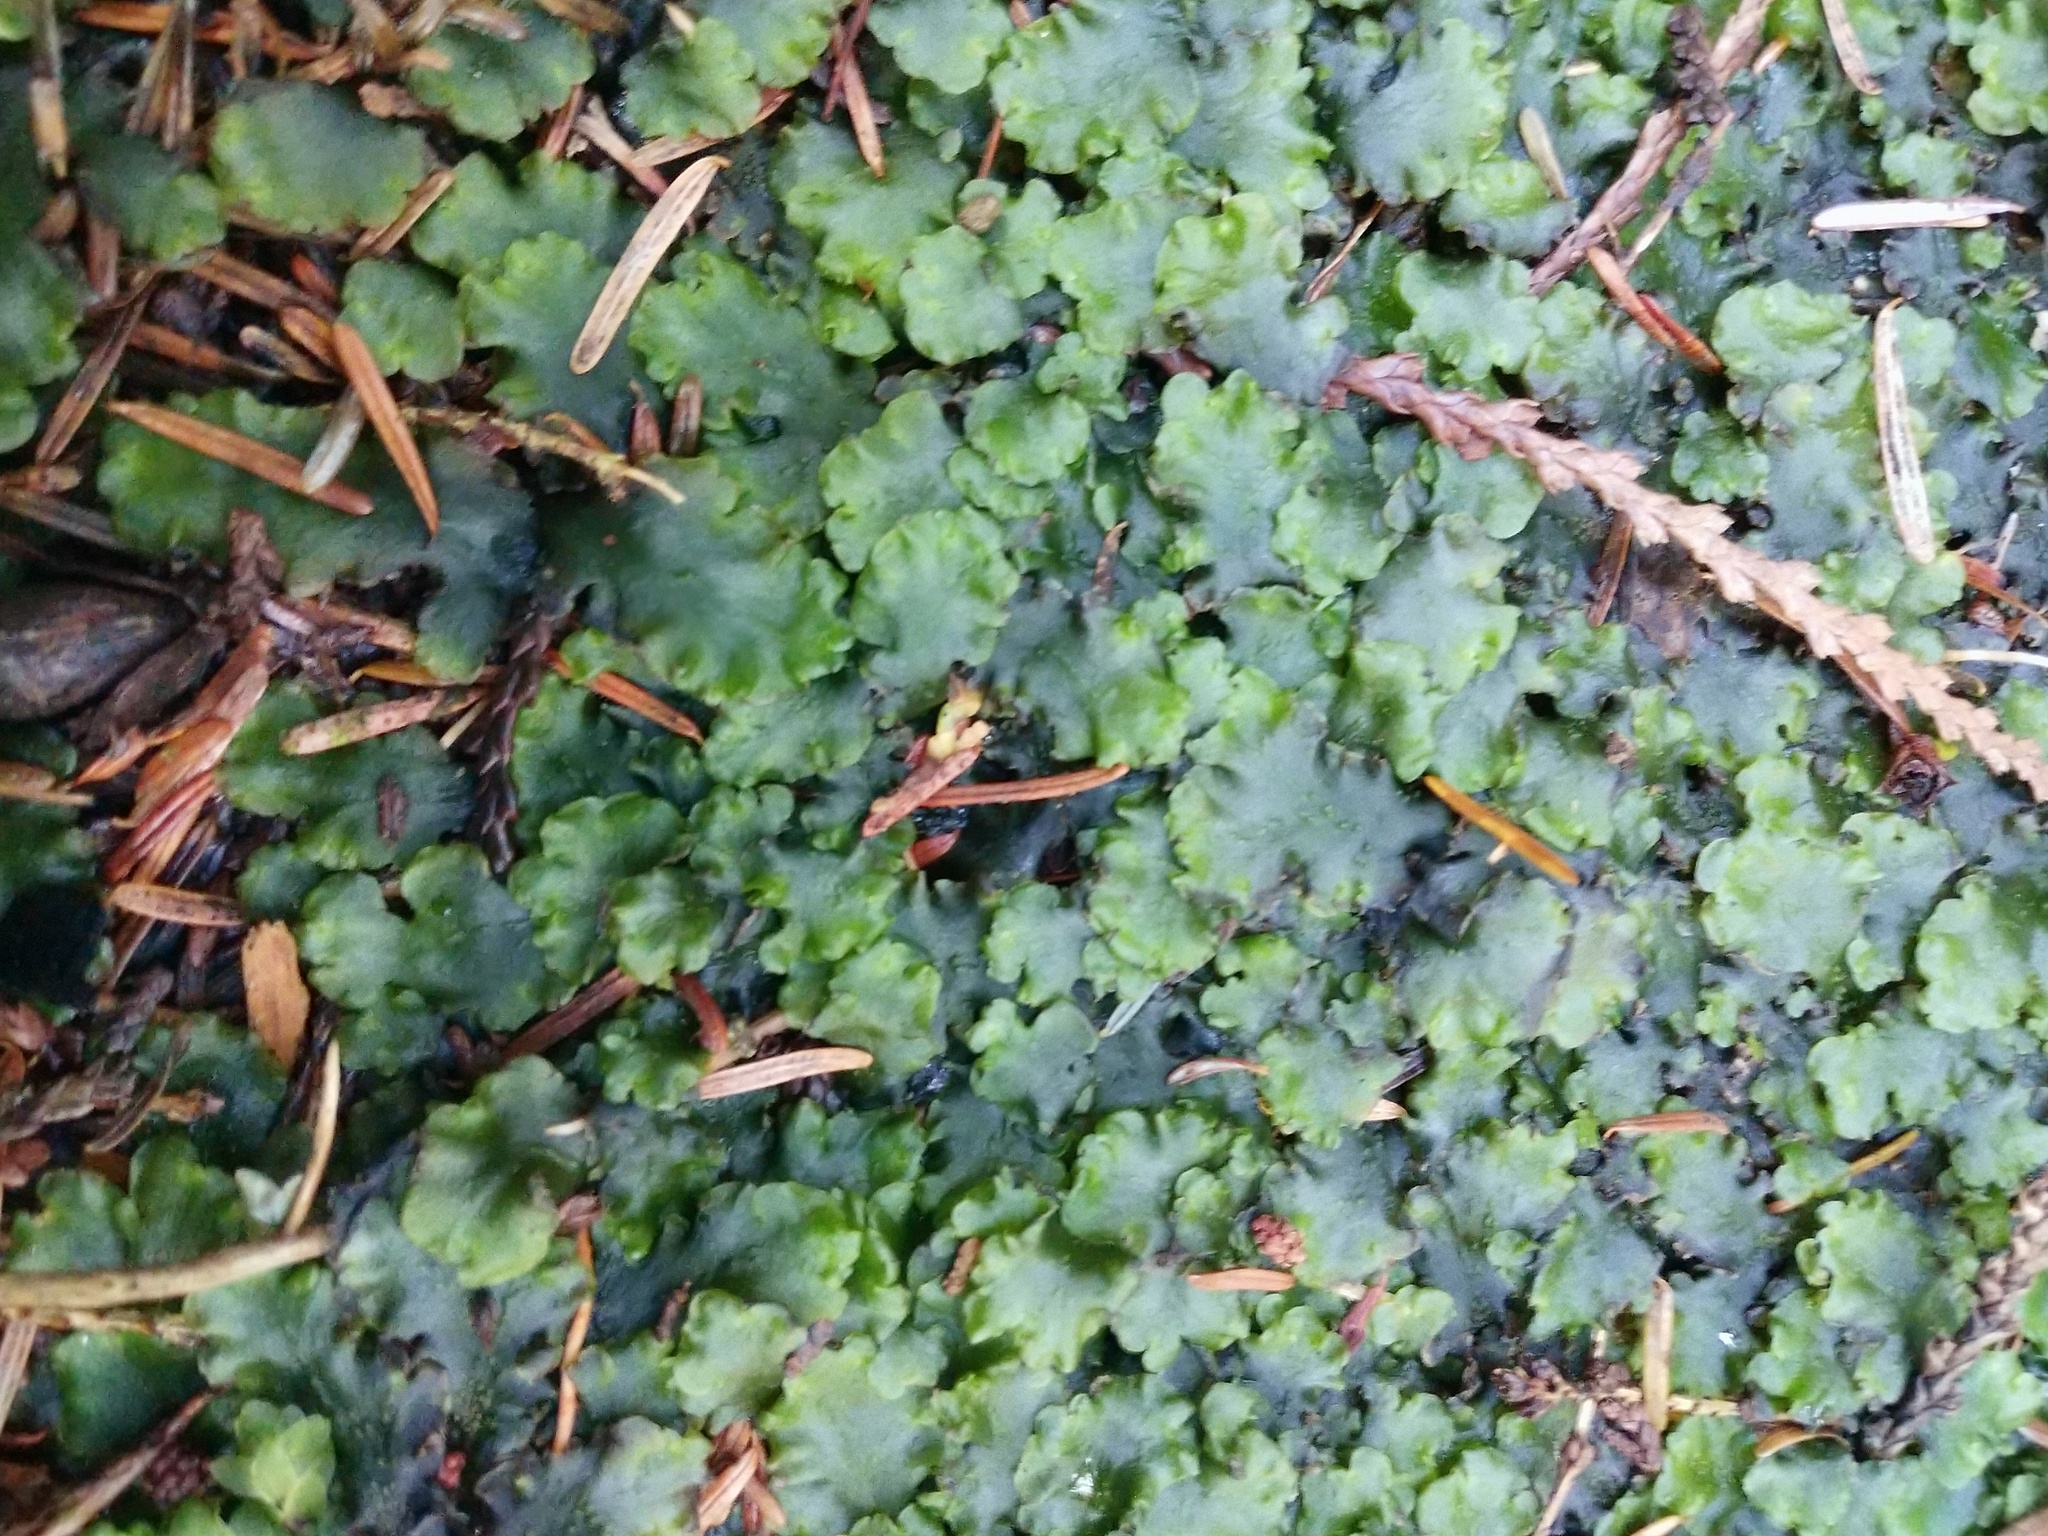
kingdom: Plantae
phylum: Marchantiophyta
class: Jungermanniopsida
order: Pelliales
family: Pelliaceae
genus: Pellia
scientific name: Pellia neesiana
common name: Nees  pellia
